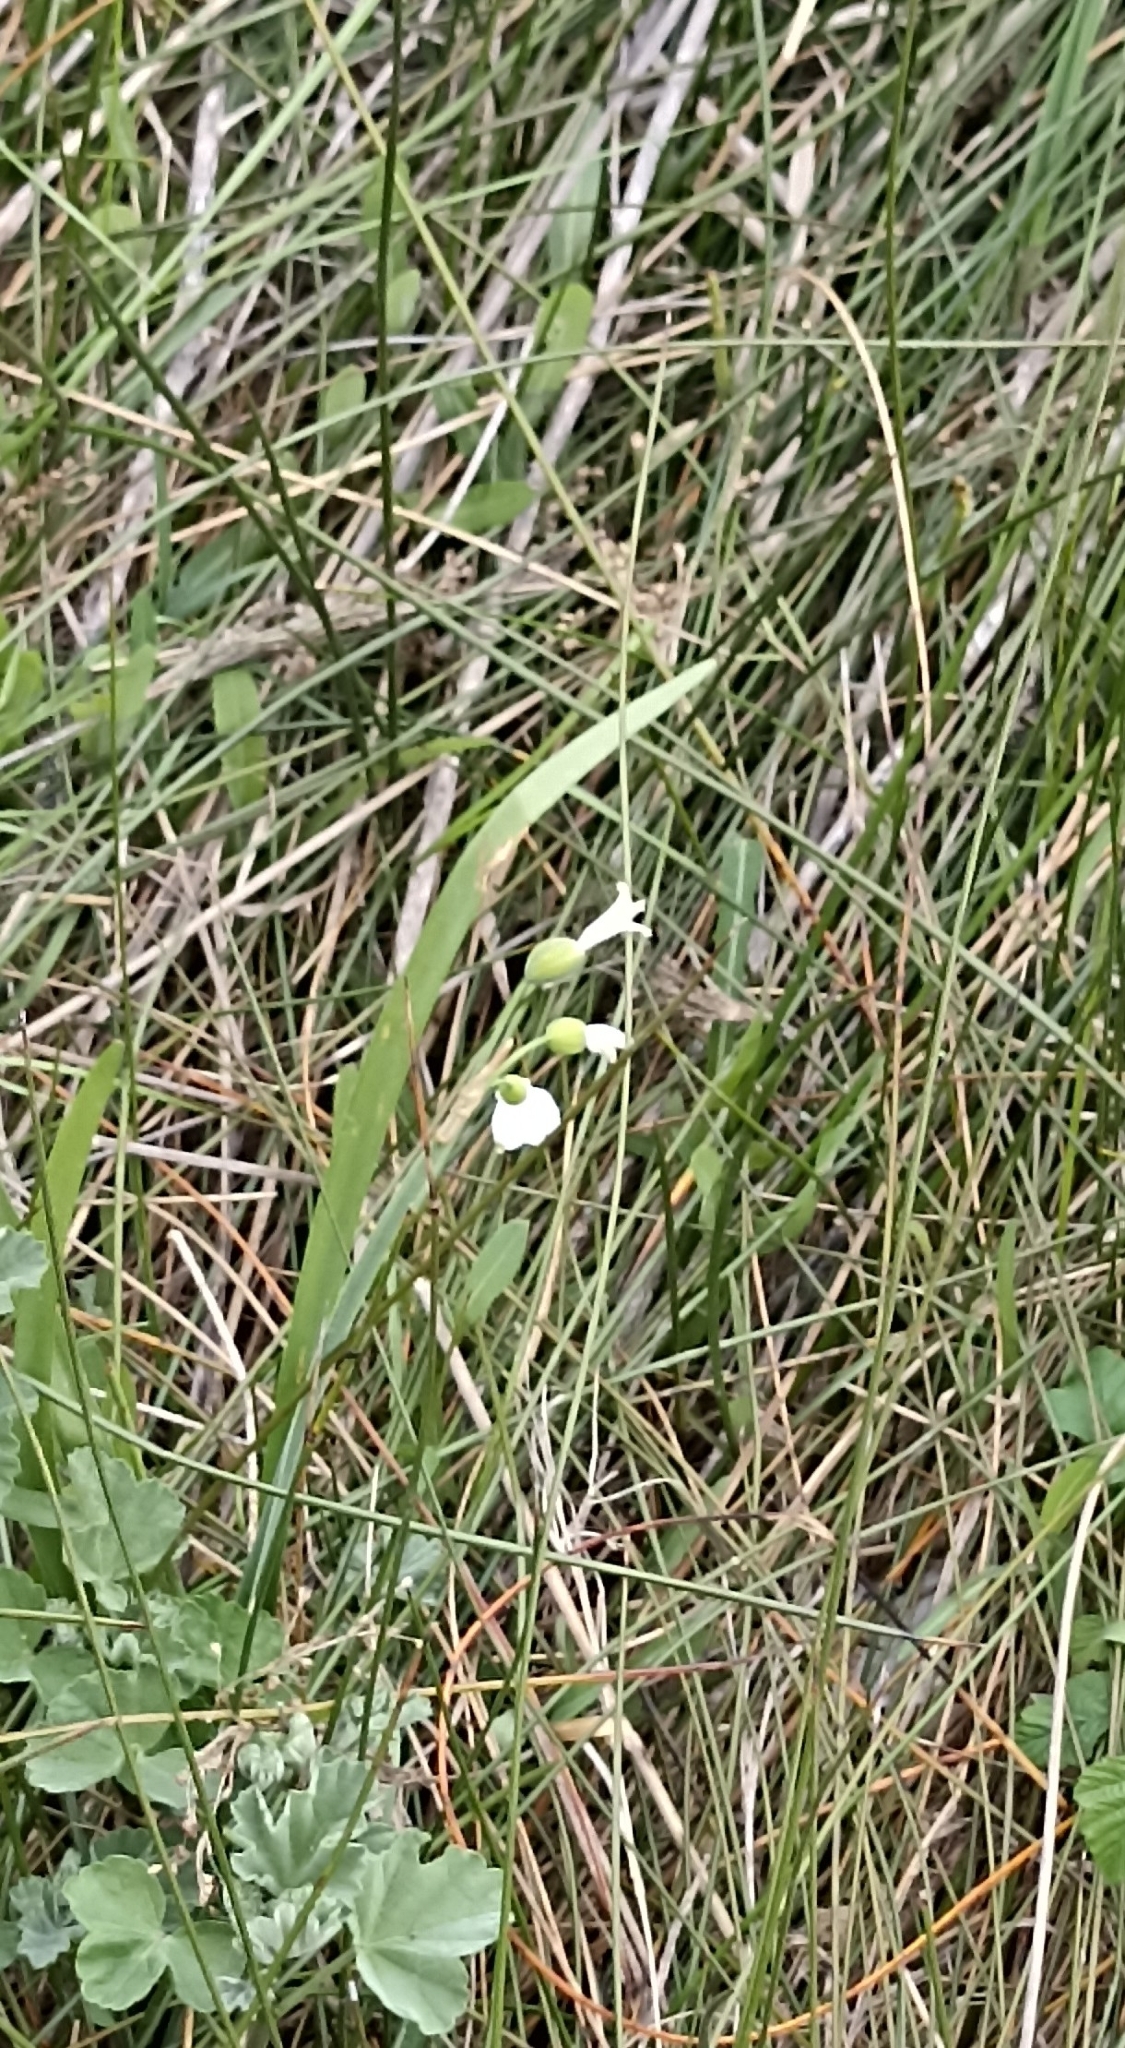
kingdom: Plantae
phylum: Tracheophyta
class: Liliopsida
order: Asparagales
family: Amaryllidaceae
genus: Leucojum
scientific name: Leucojum aestivum
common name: Summer snowflake
